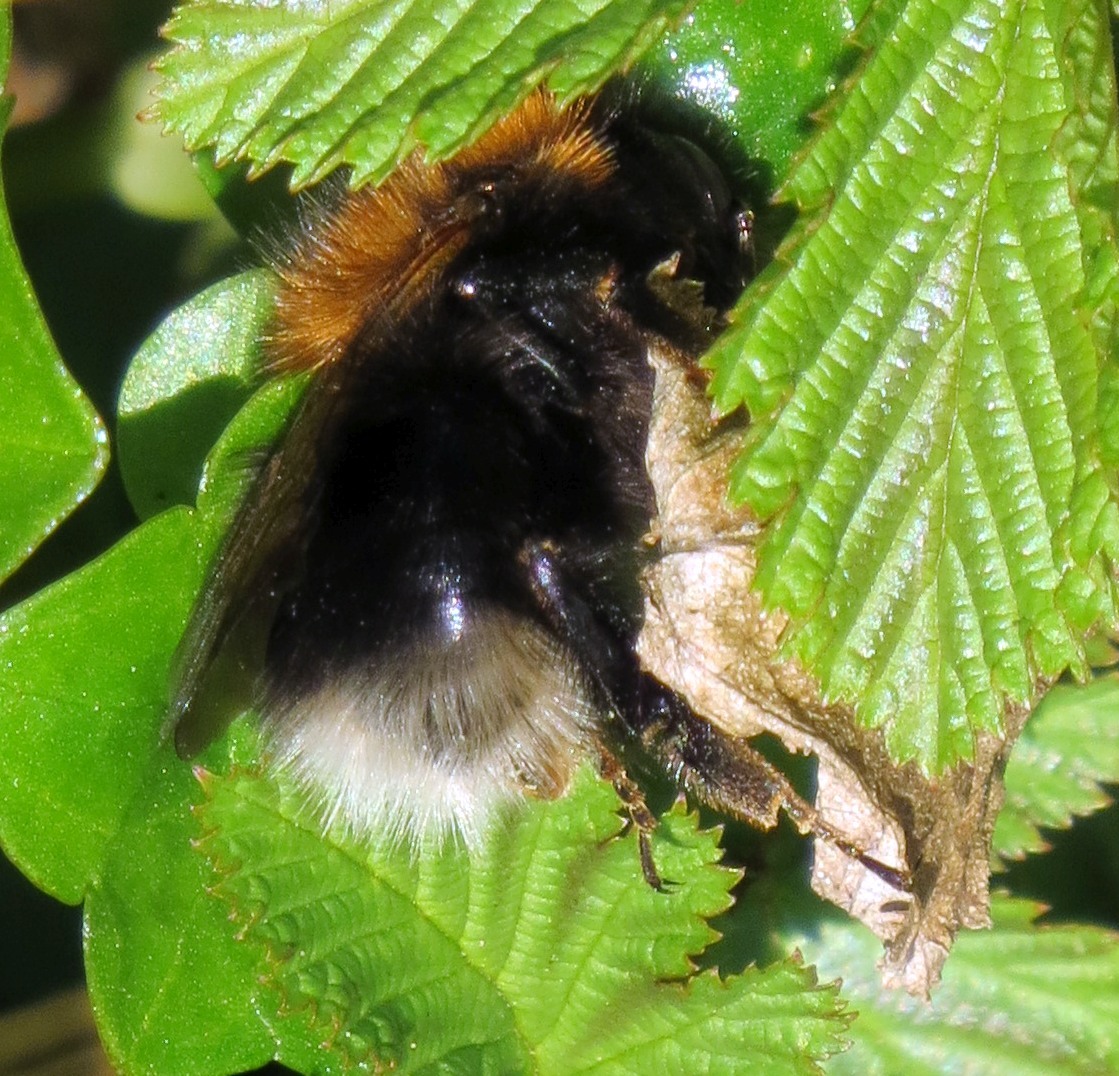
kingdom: Animalia
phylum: Arthropoda
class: Insecta
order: Hymenoptera
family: Apidae
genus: Bombus
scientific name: Bombus hypnorum
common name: New garden bumblebee
